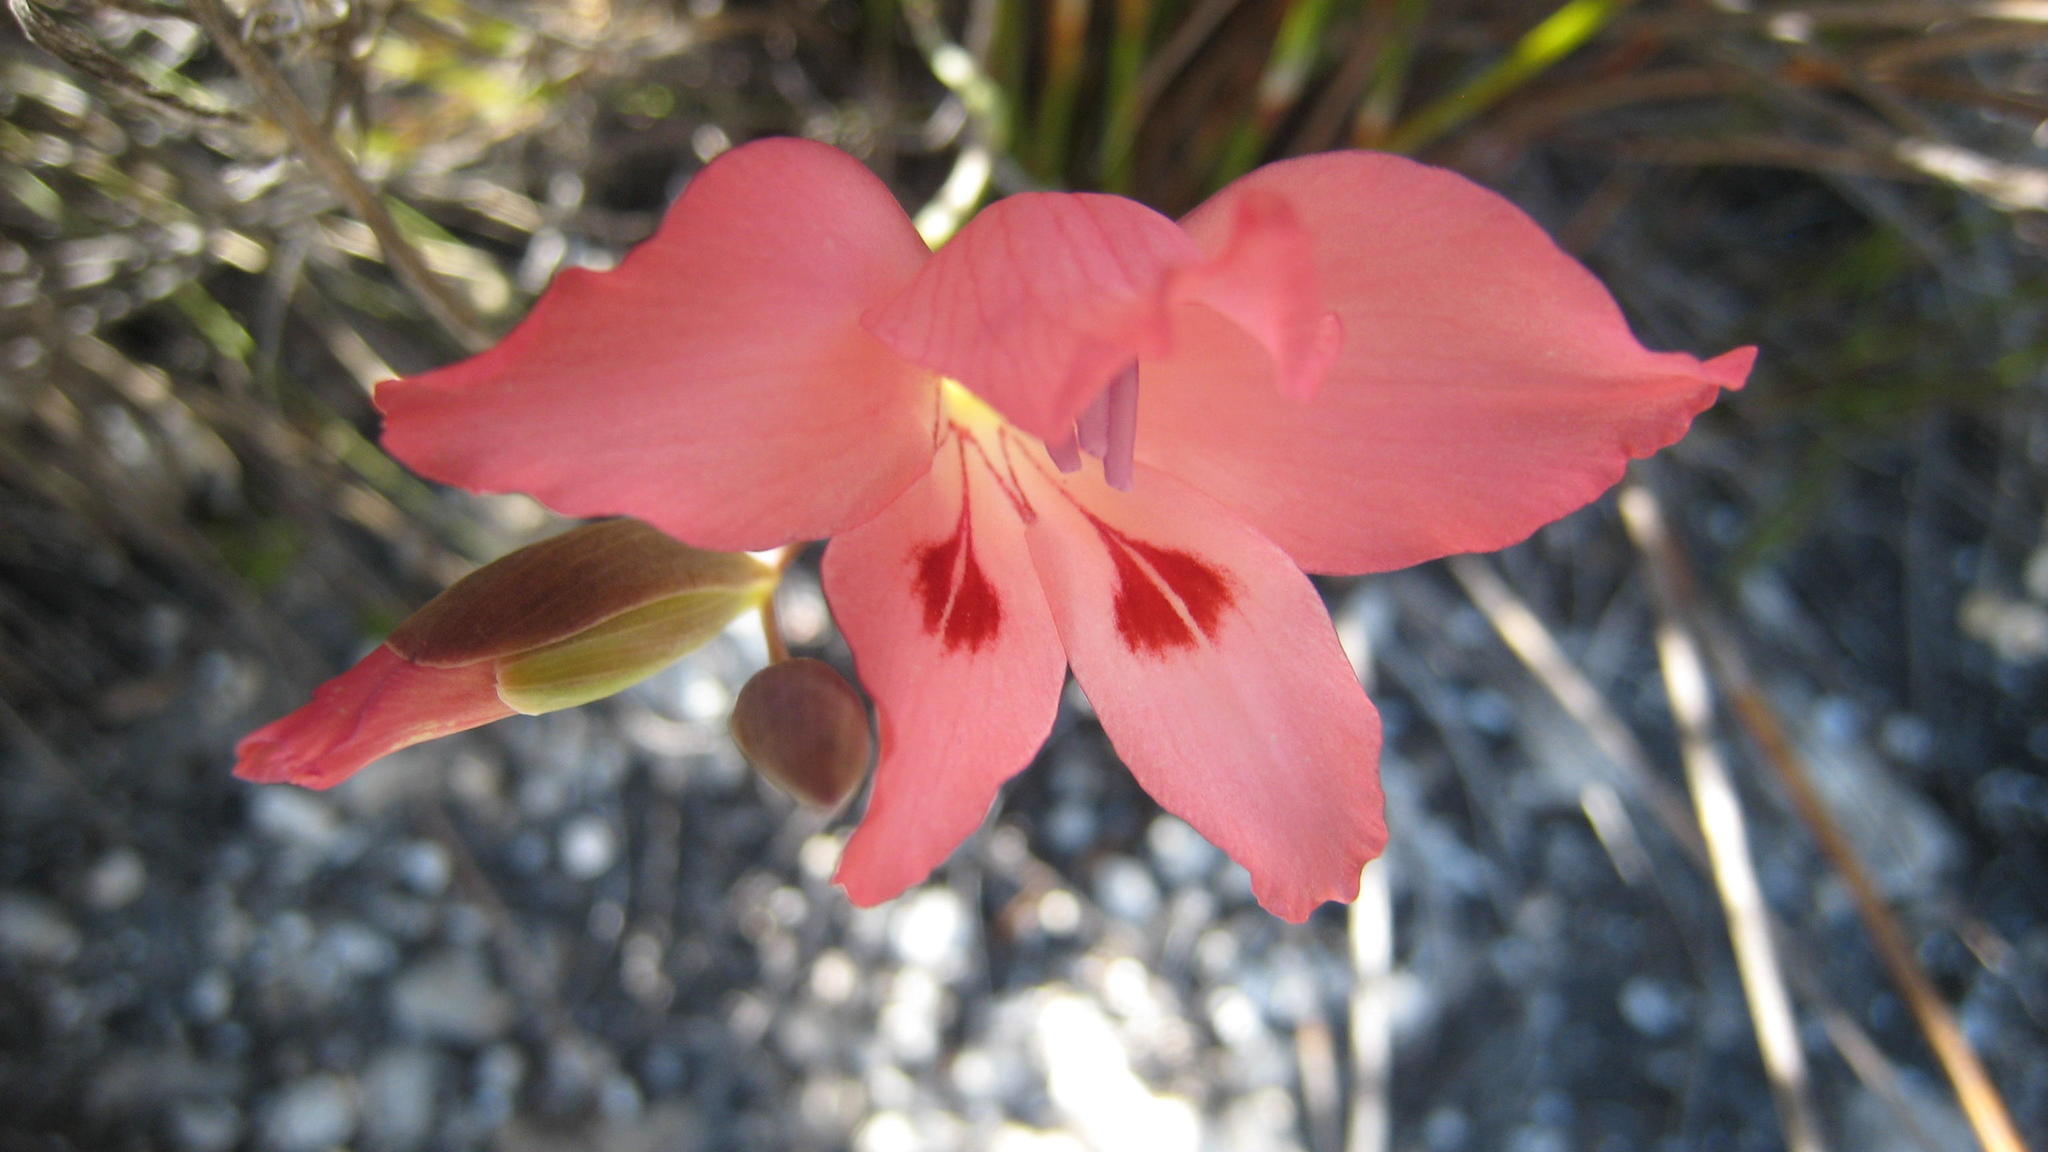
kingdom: Plantae
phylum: Tracheophyta
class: Liliopsida
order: Asparagales
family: Iridaceae
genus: Gladiolus
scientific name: Gladiolus oreocharis
